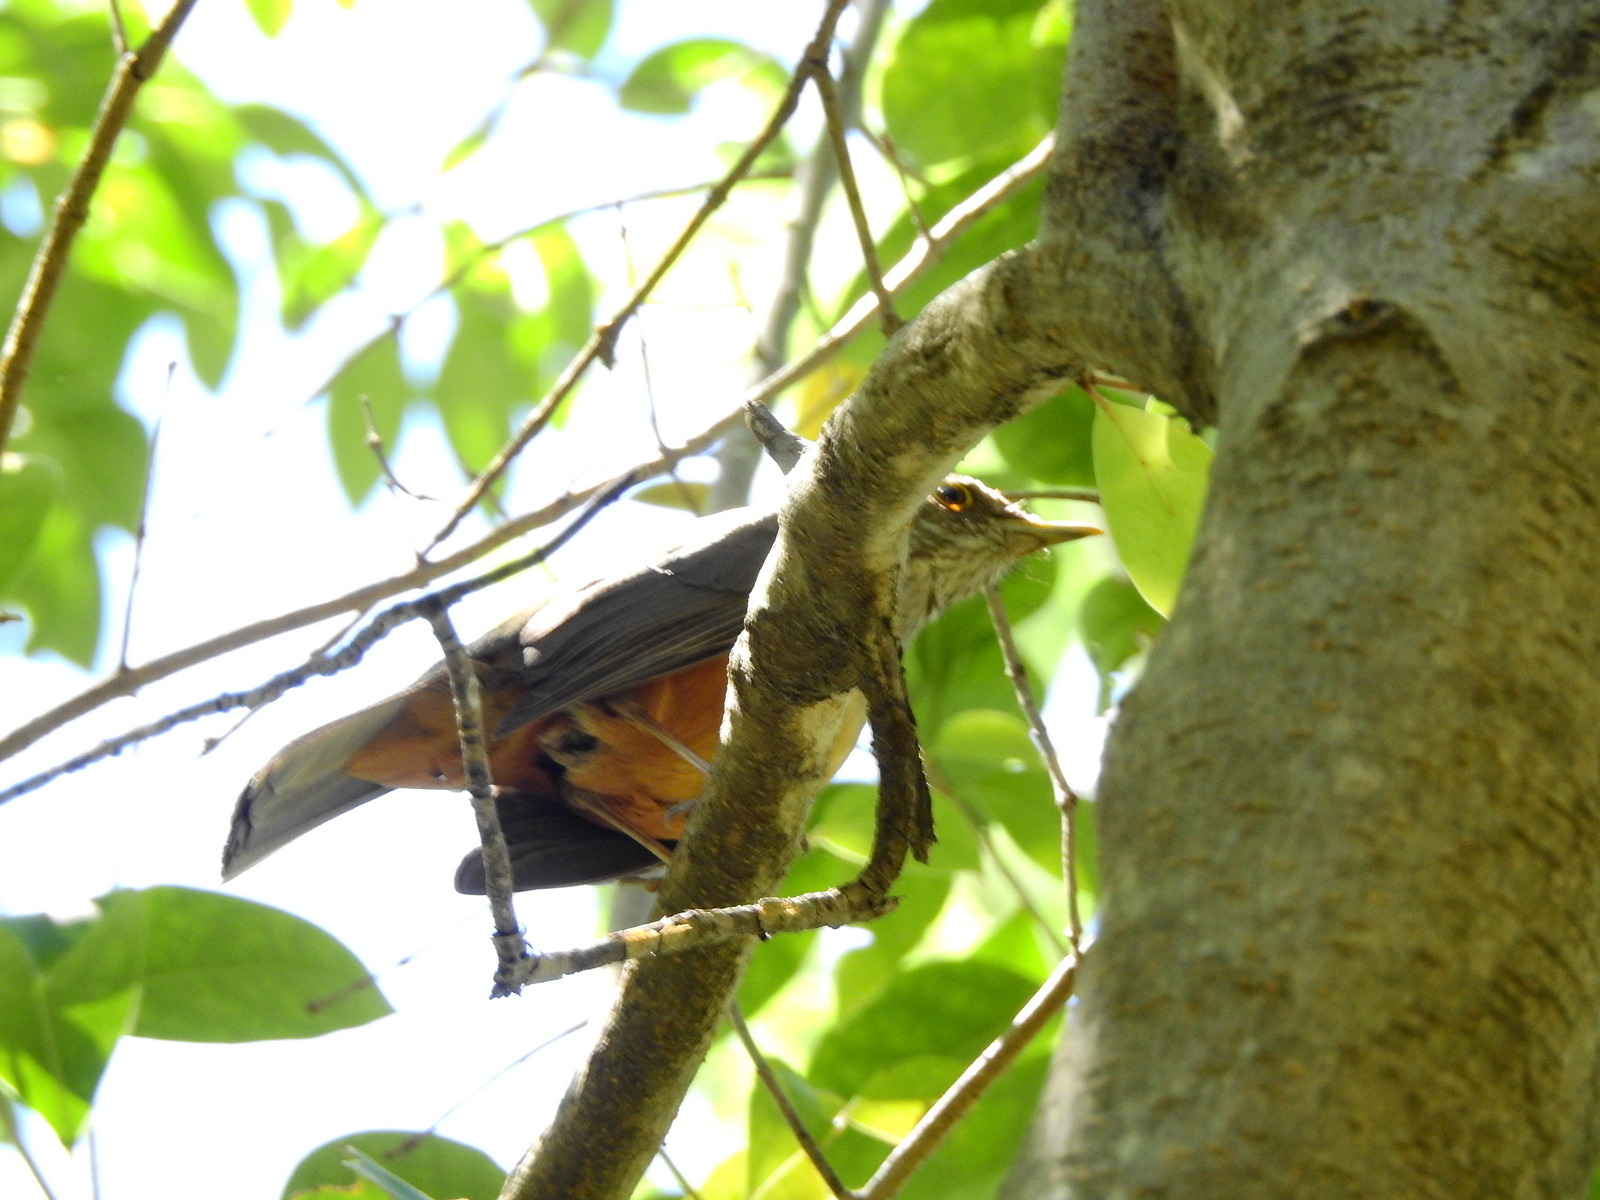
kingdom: Animalia
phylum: Chordata
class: Aves
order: Passeriformes
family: Turdidae
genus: Turdus
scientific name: Turdus rufiventris
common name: Rufous-bellied thrush
